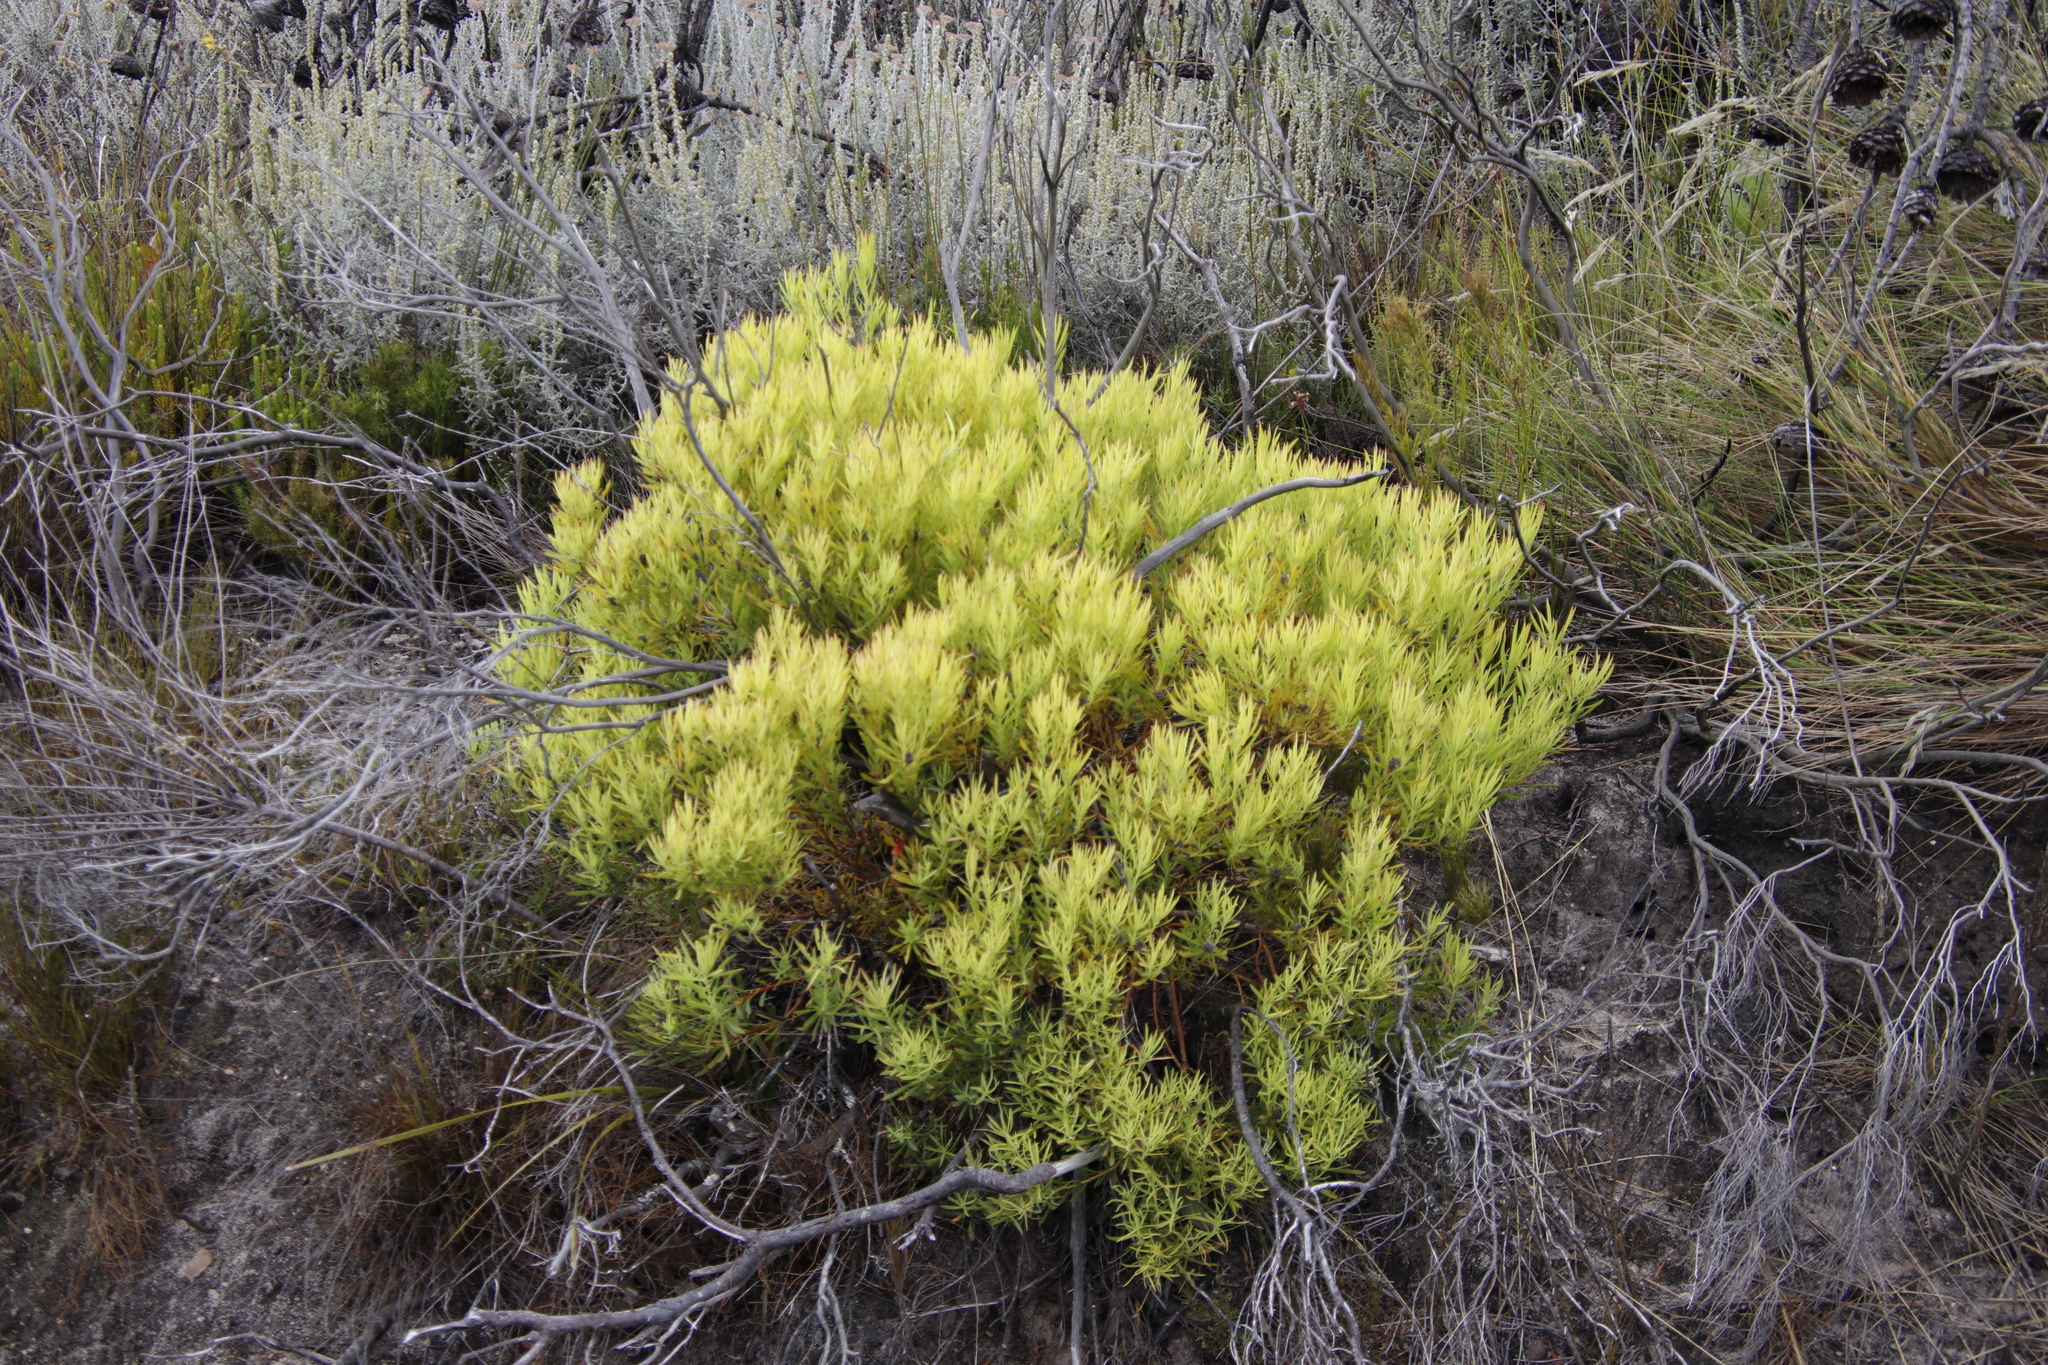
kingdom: Plantae
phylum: Tracheophyta
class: Magnoliopsida
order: Proteales
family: Proteaceae
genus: Leucadendron
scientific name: Leucadendron salignum
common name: Common sunshine conebush
